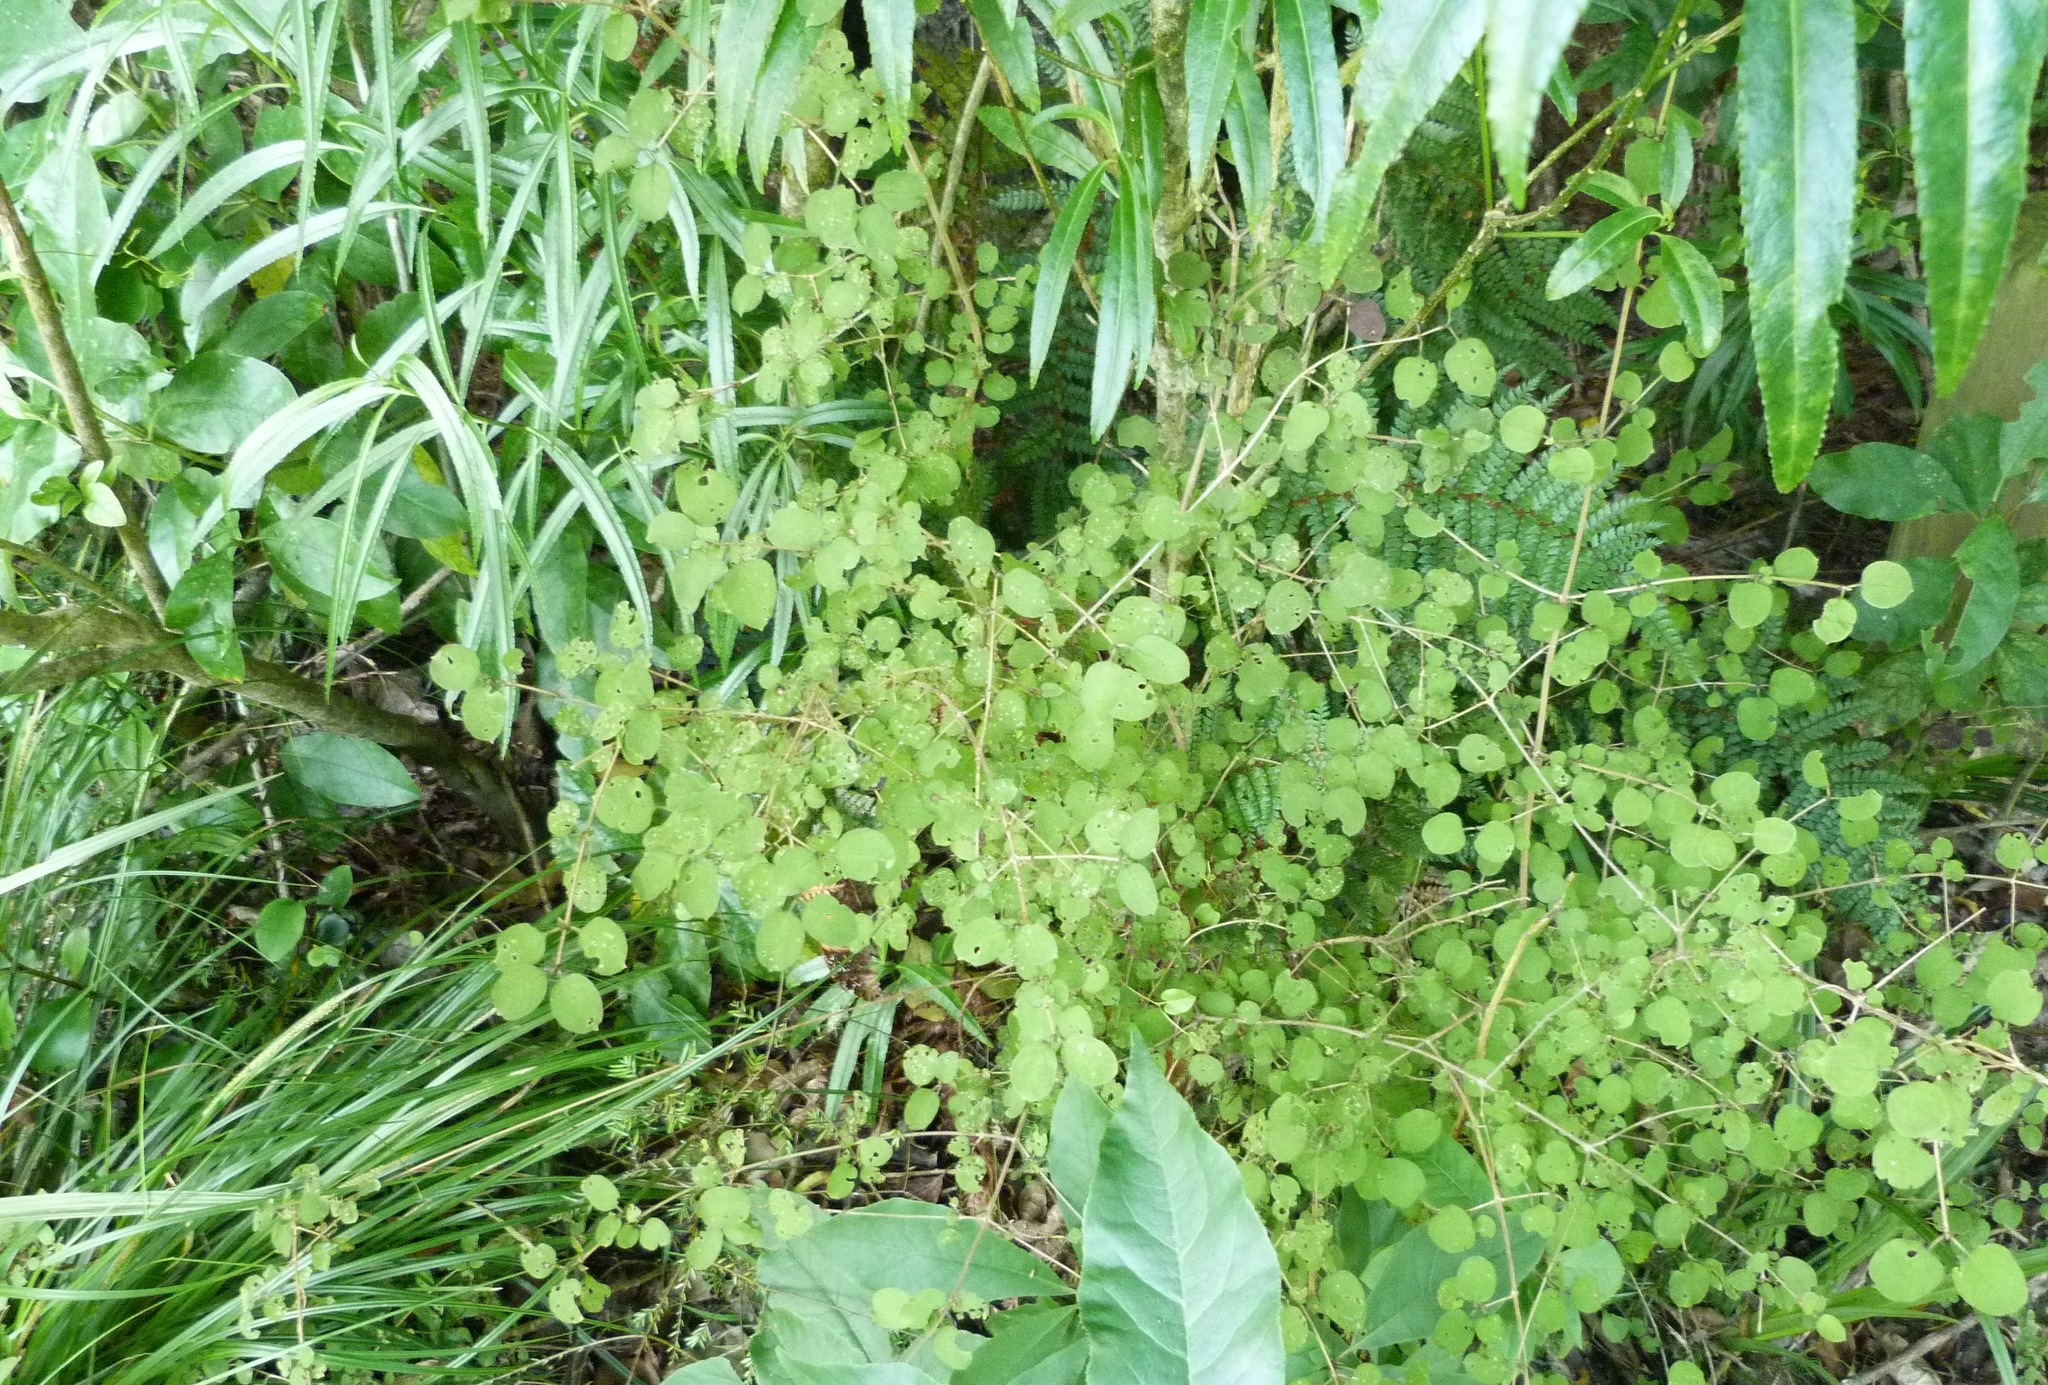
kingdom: Plantae
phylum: Tracheophyta
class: Magnoliopsida
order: Gentianales
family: Rubiaceae
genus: Coprosma
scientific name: Coprosma rotundifolia
